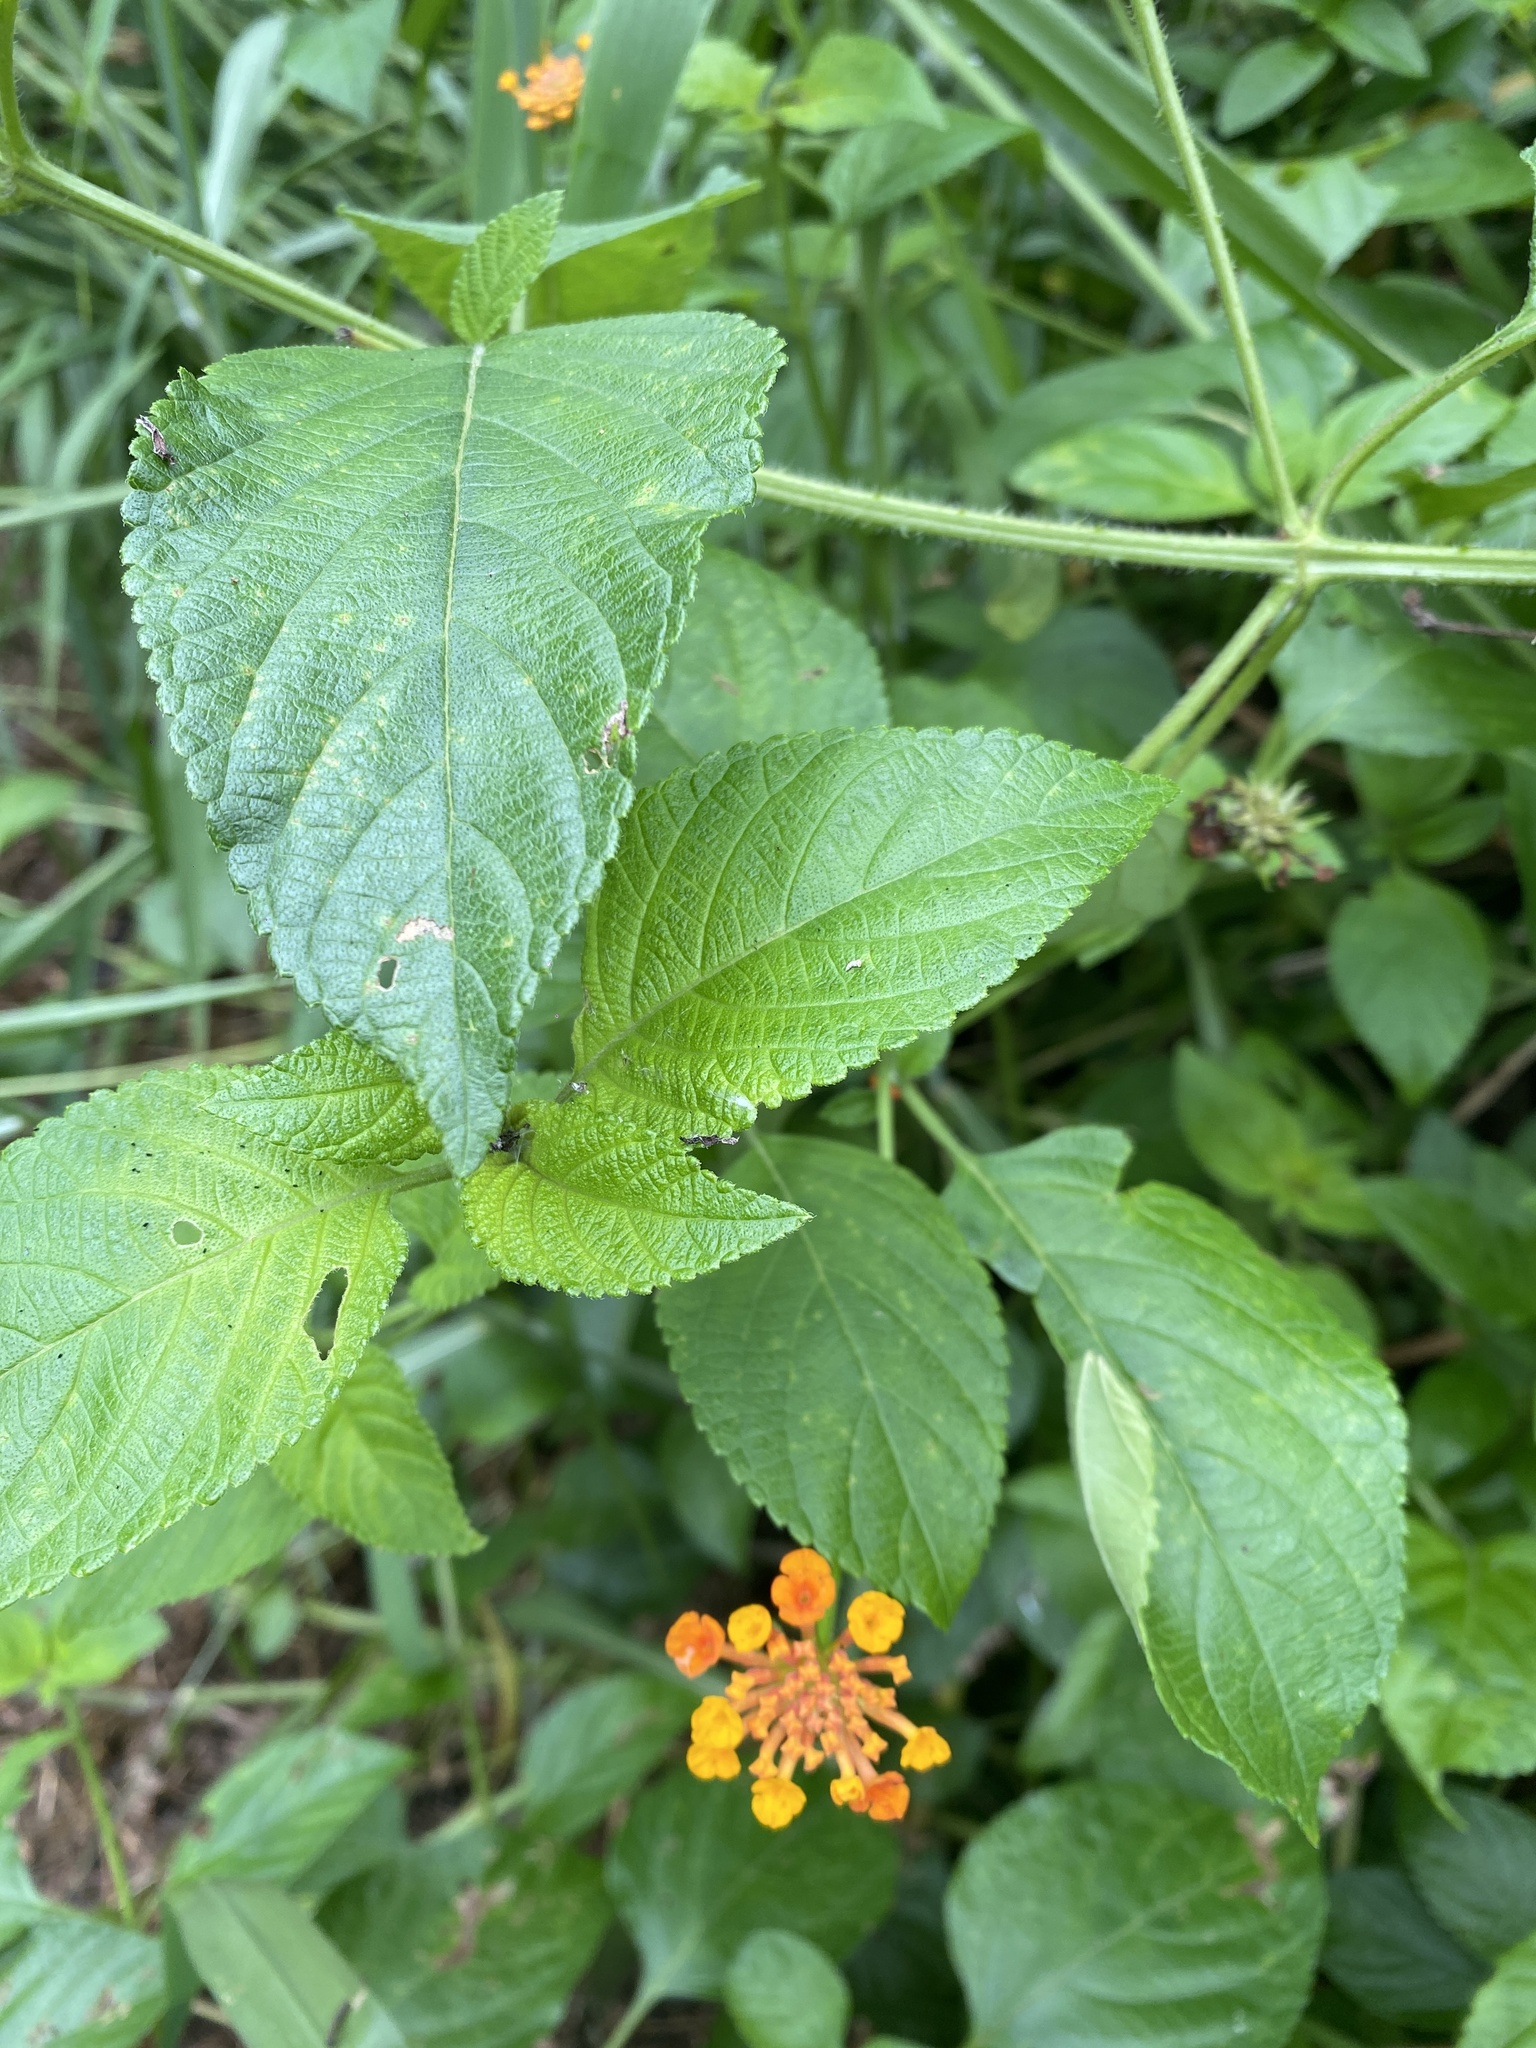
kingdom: Plantae
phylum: Tracheophyta
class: Magnoliopsida
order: Lamiales
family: Verbenaceae
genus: Lantana
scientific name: Lantana camara
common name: Lantana
